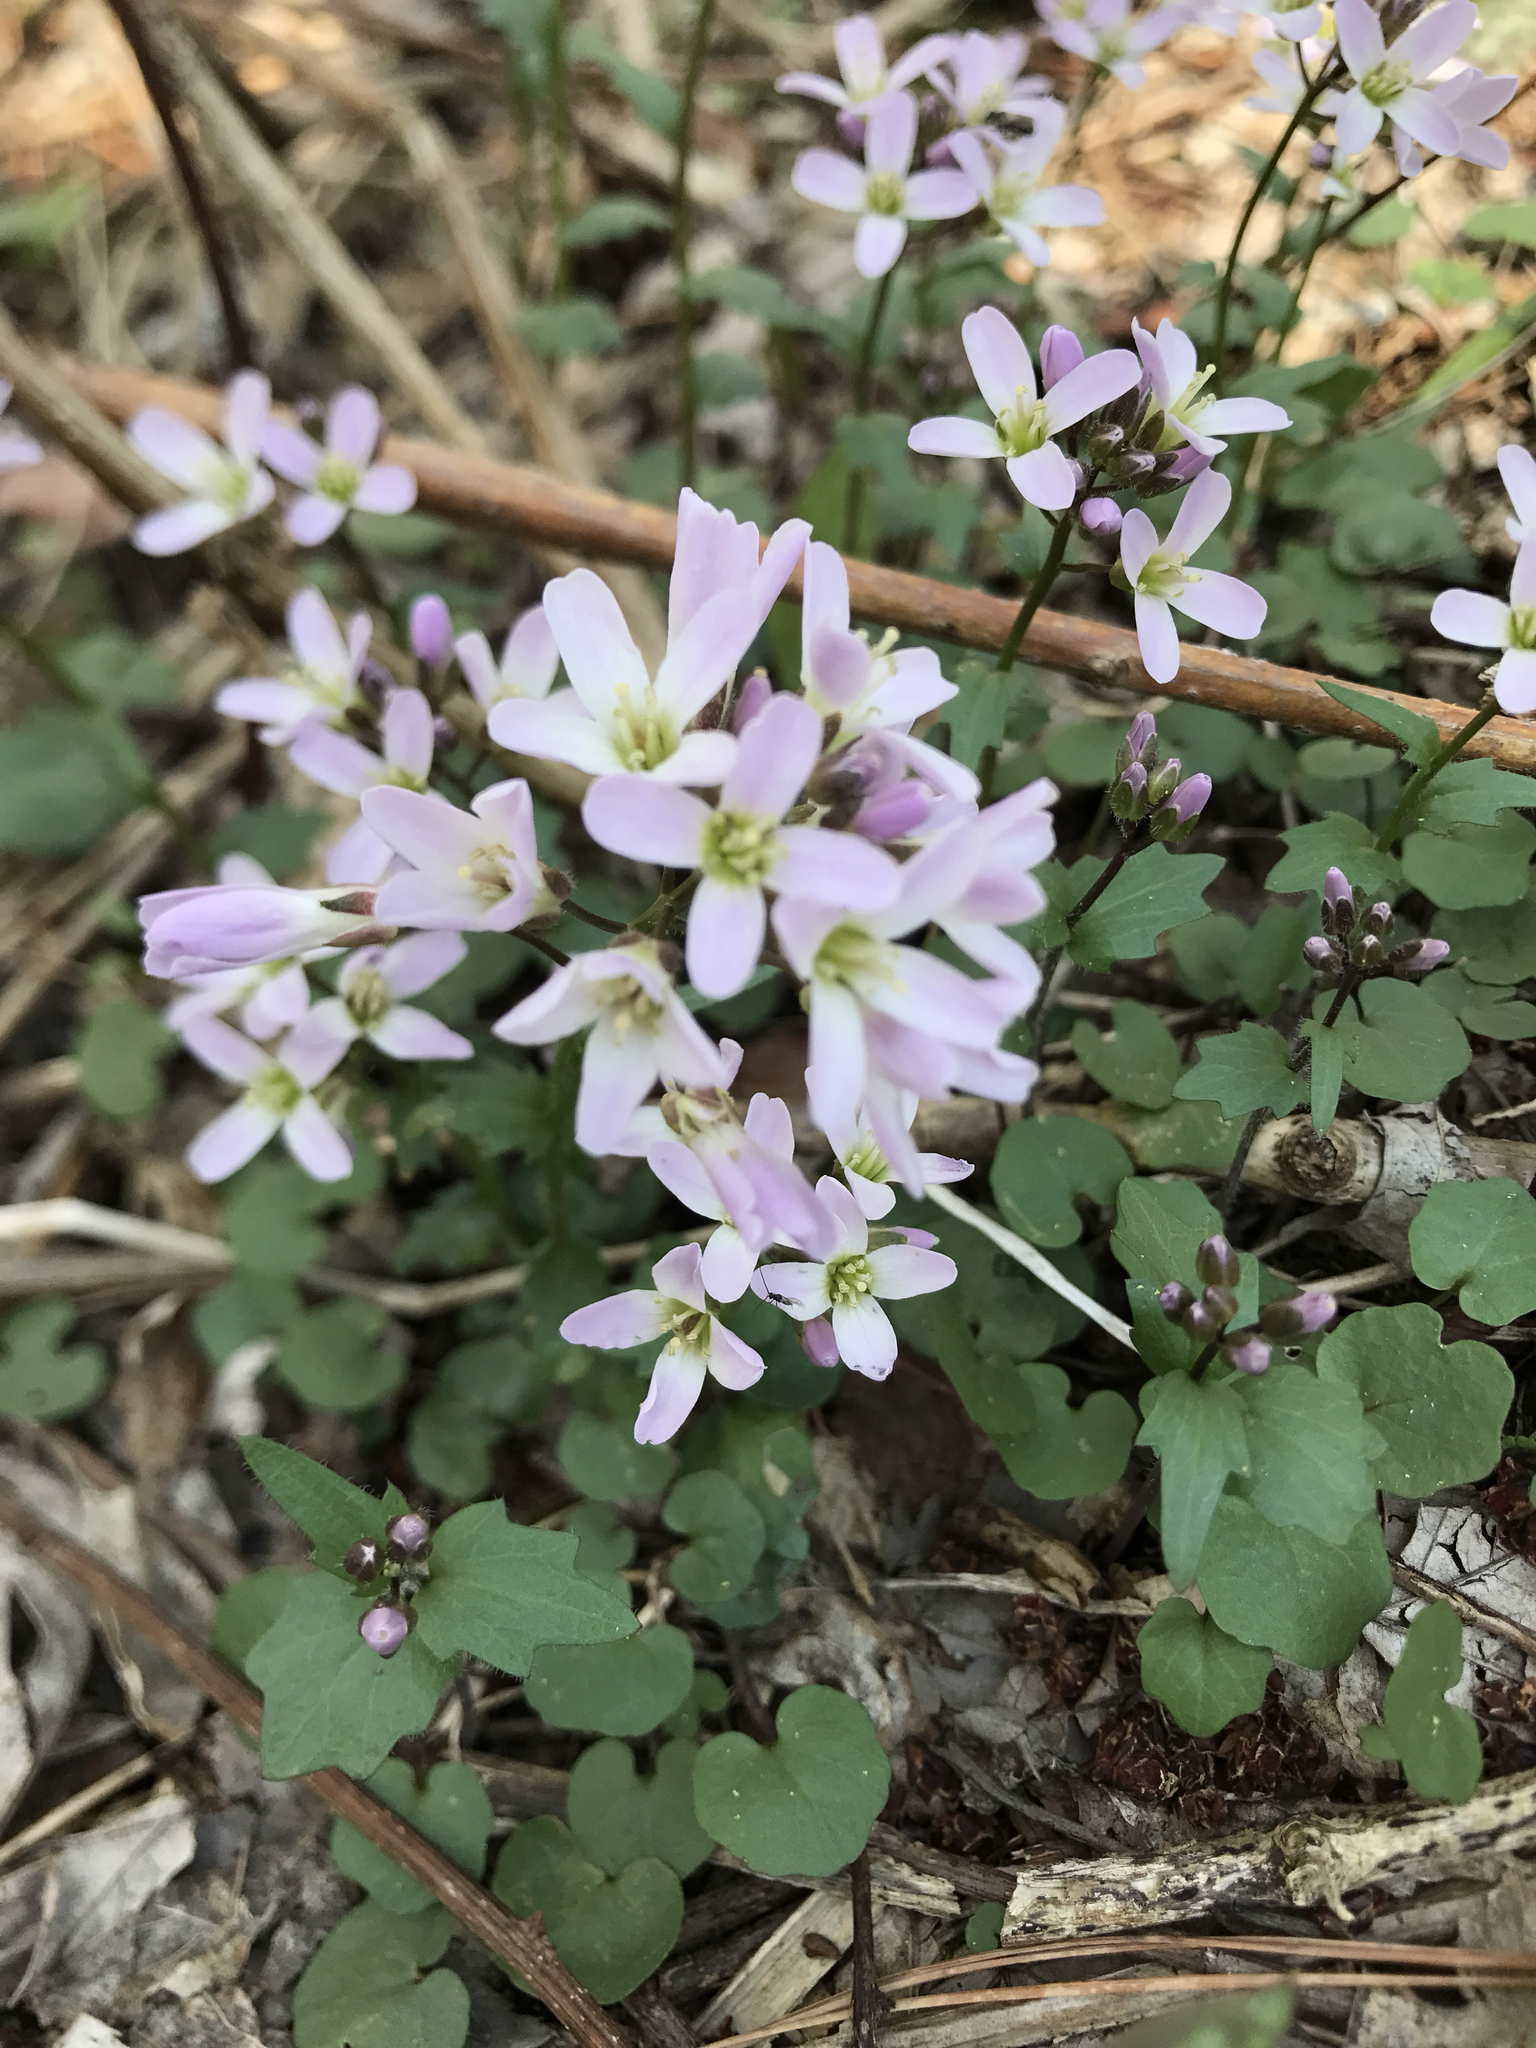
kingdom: Plantae
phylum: Tracheophyta
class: Magnoliopsida
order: Brassicales
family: Brassicaceae
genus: Cardamine
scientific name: Cardamine douglassii
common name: Purple cress
